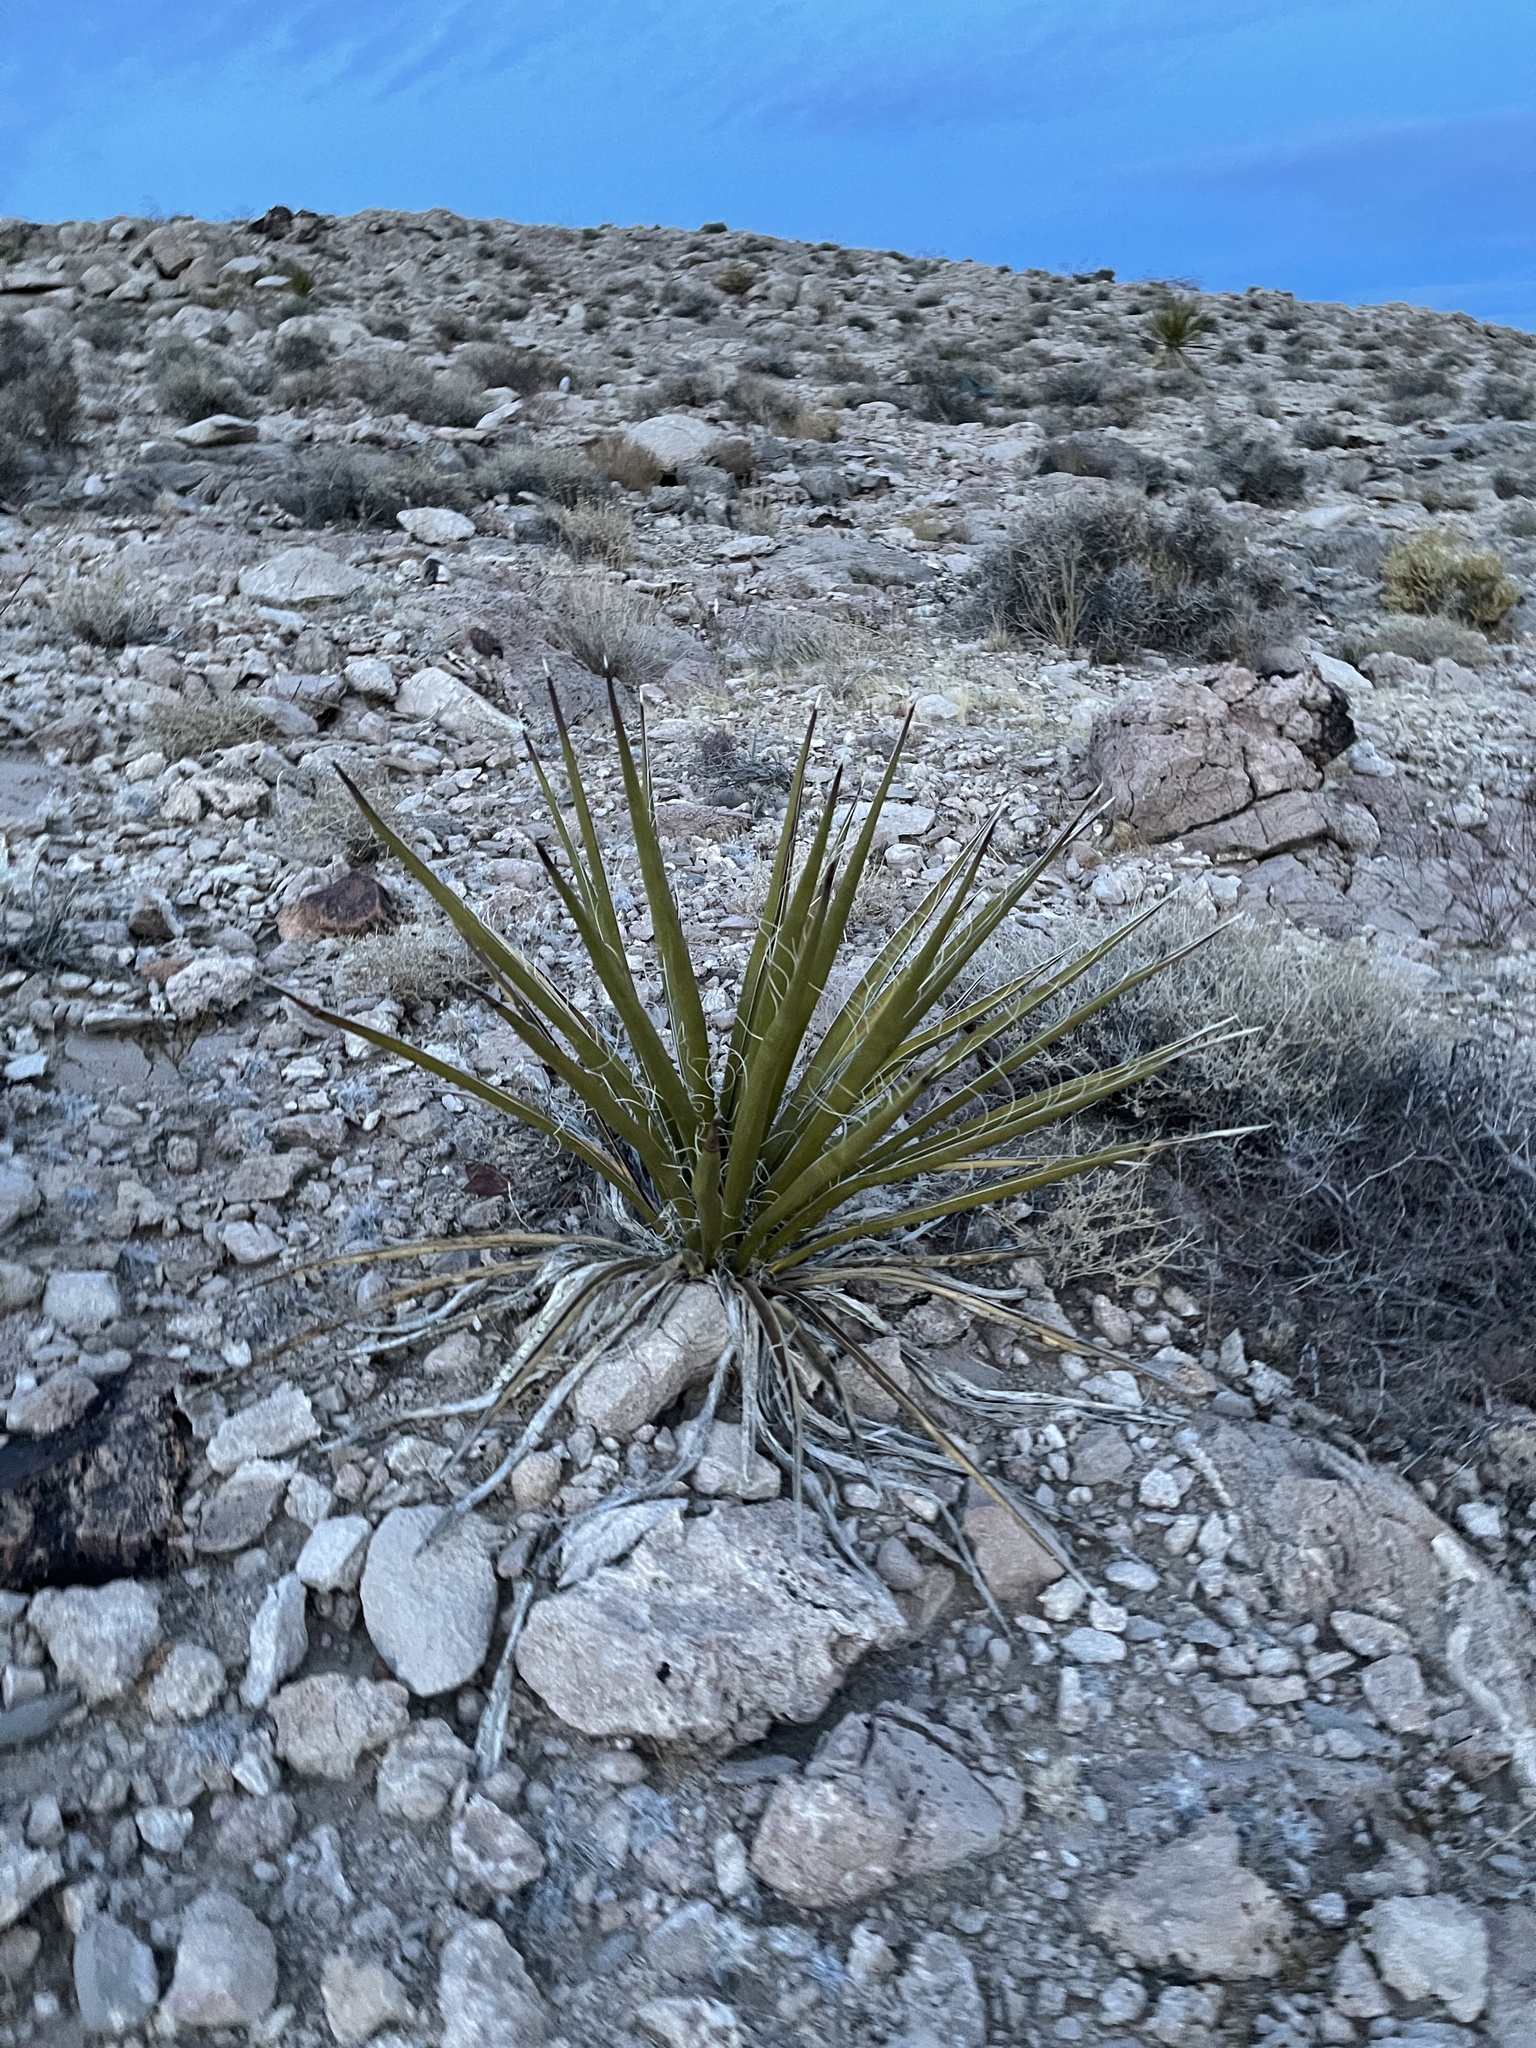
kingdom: Plantae
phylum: Tracheophyta
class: Liliopsida
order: Asparagales
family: Asparagaceae
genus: Yucca
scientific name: Yucca schidigera
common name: Mojave yucca
